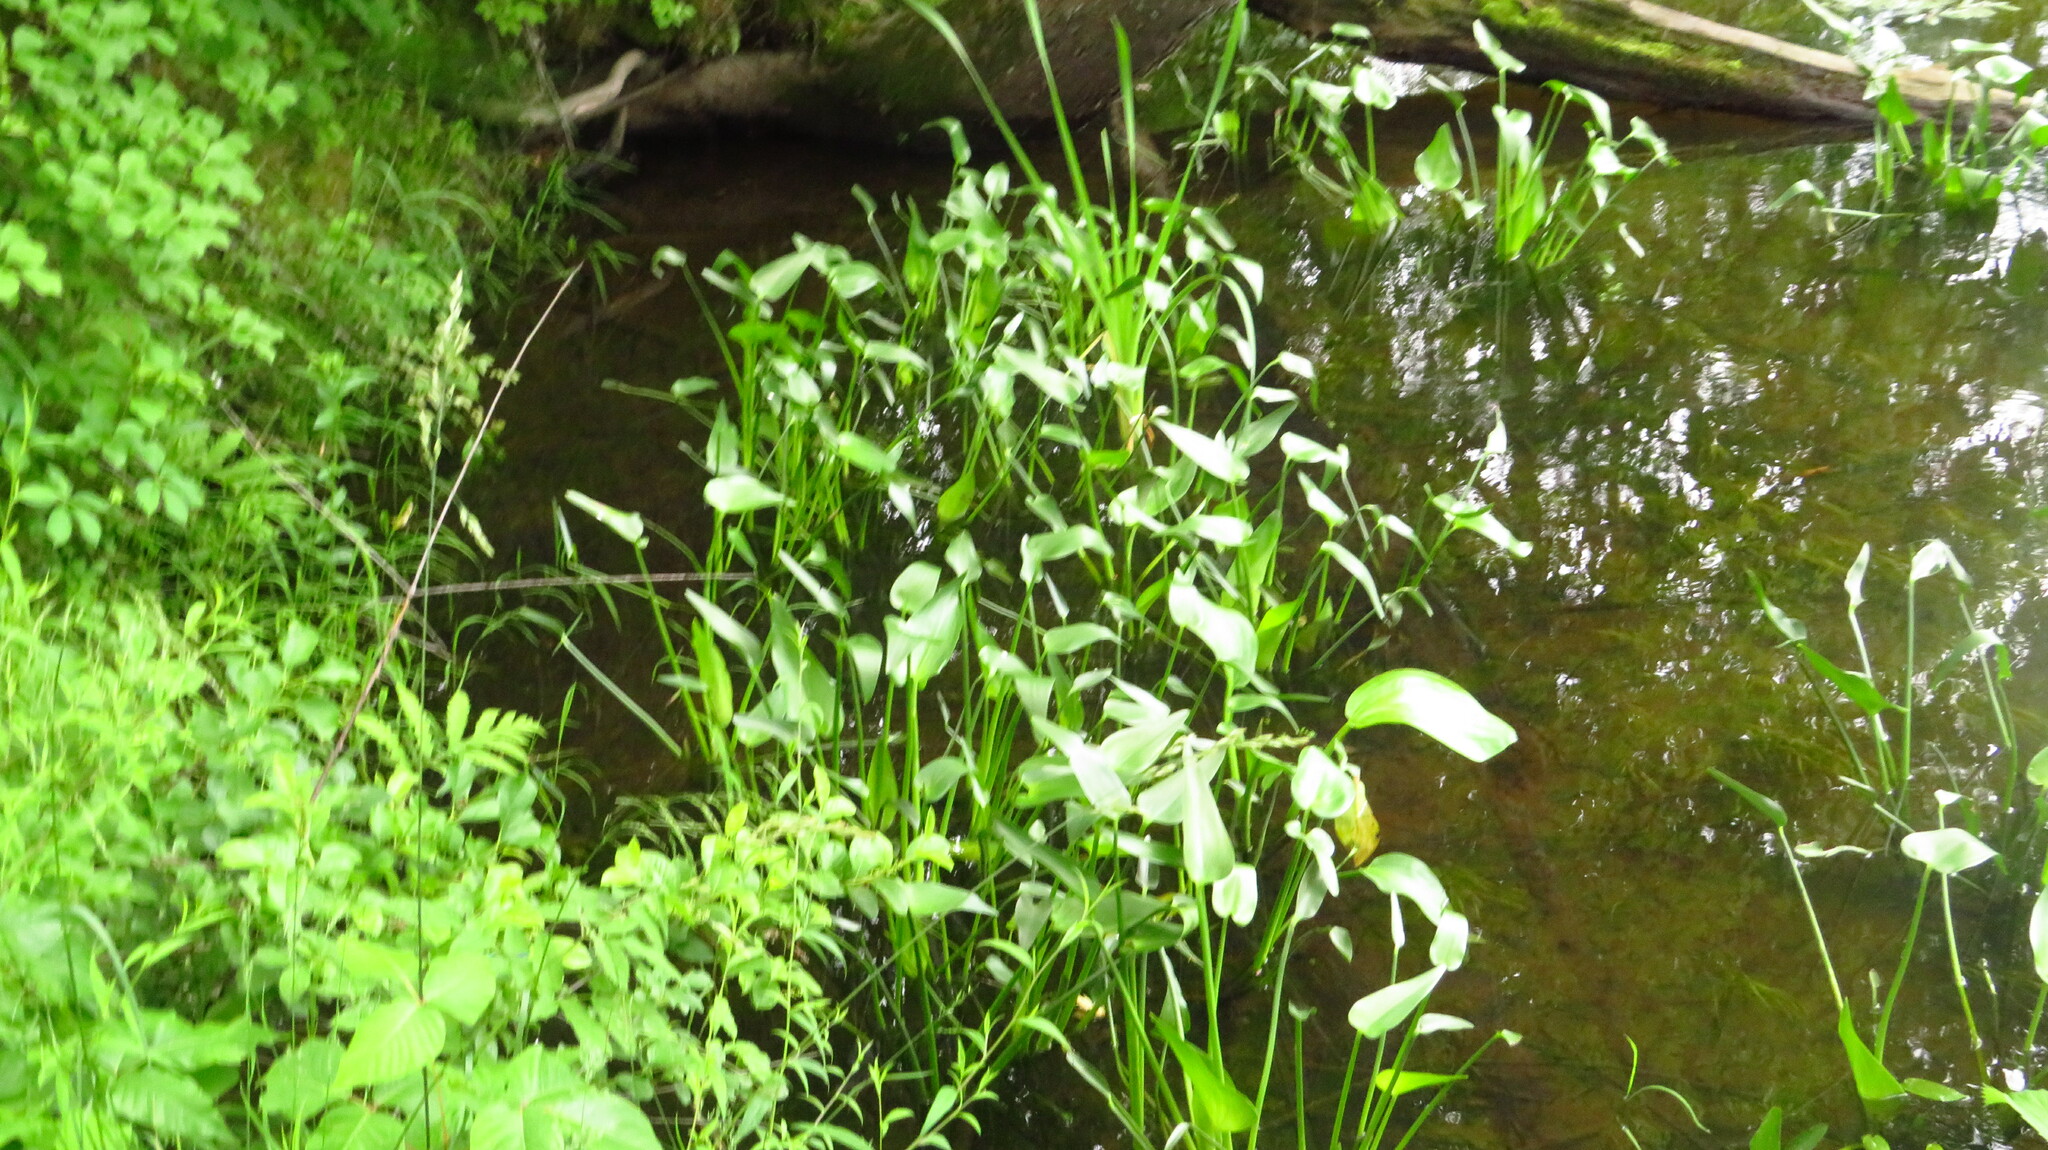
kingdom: Plantae
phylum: Tracheophyta
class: Liliopsida
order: Commelinales
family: Pontederiaceae
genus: Pontederia
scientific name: Pontederia cordata
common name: Pickerelweed
